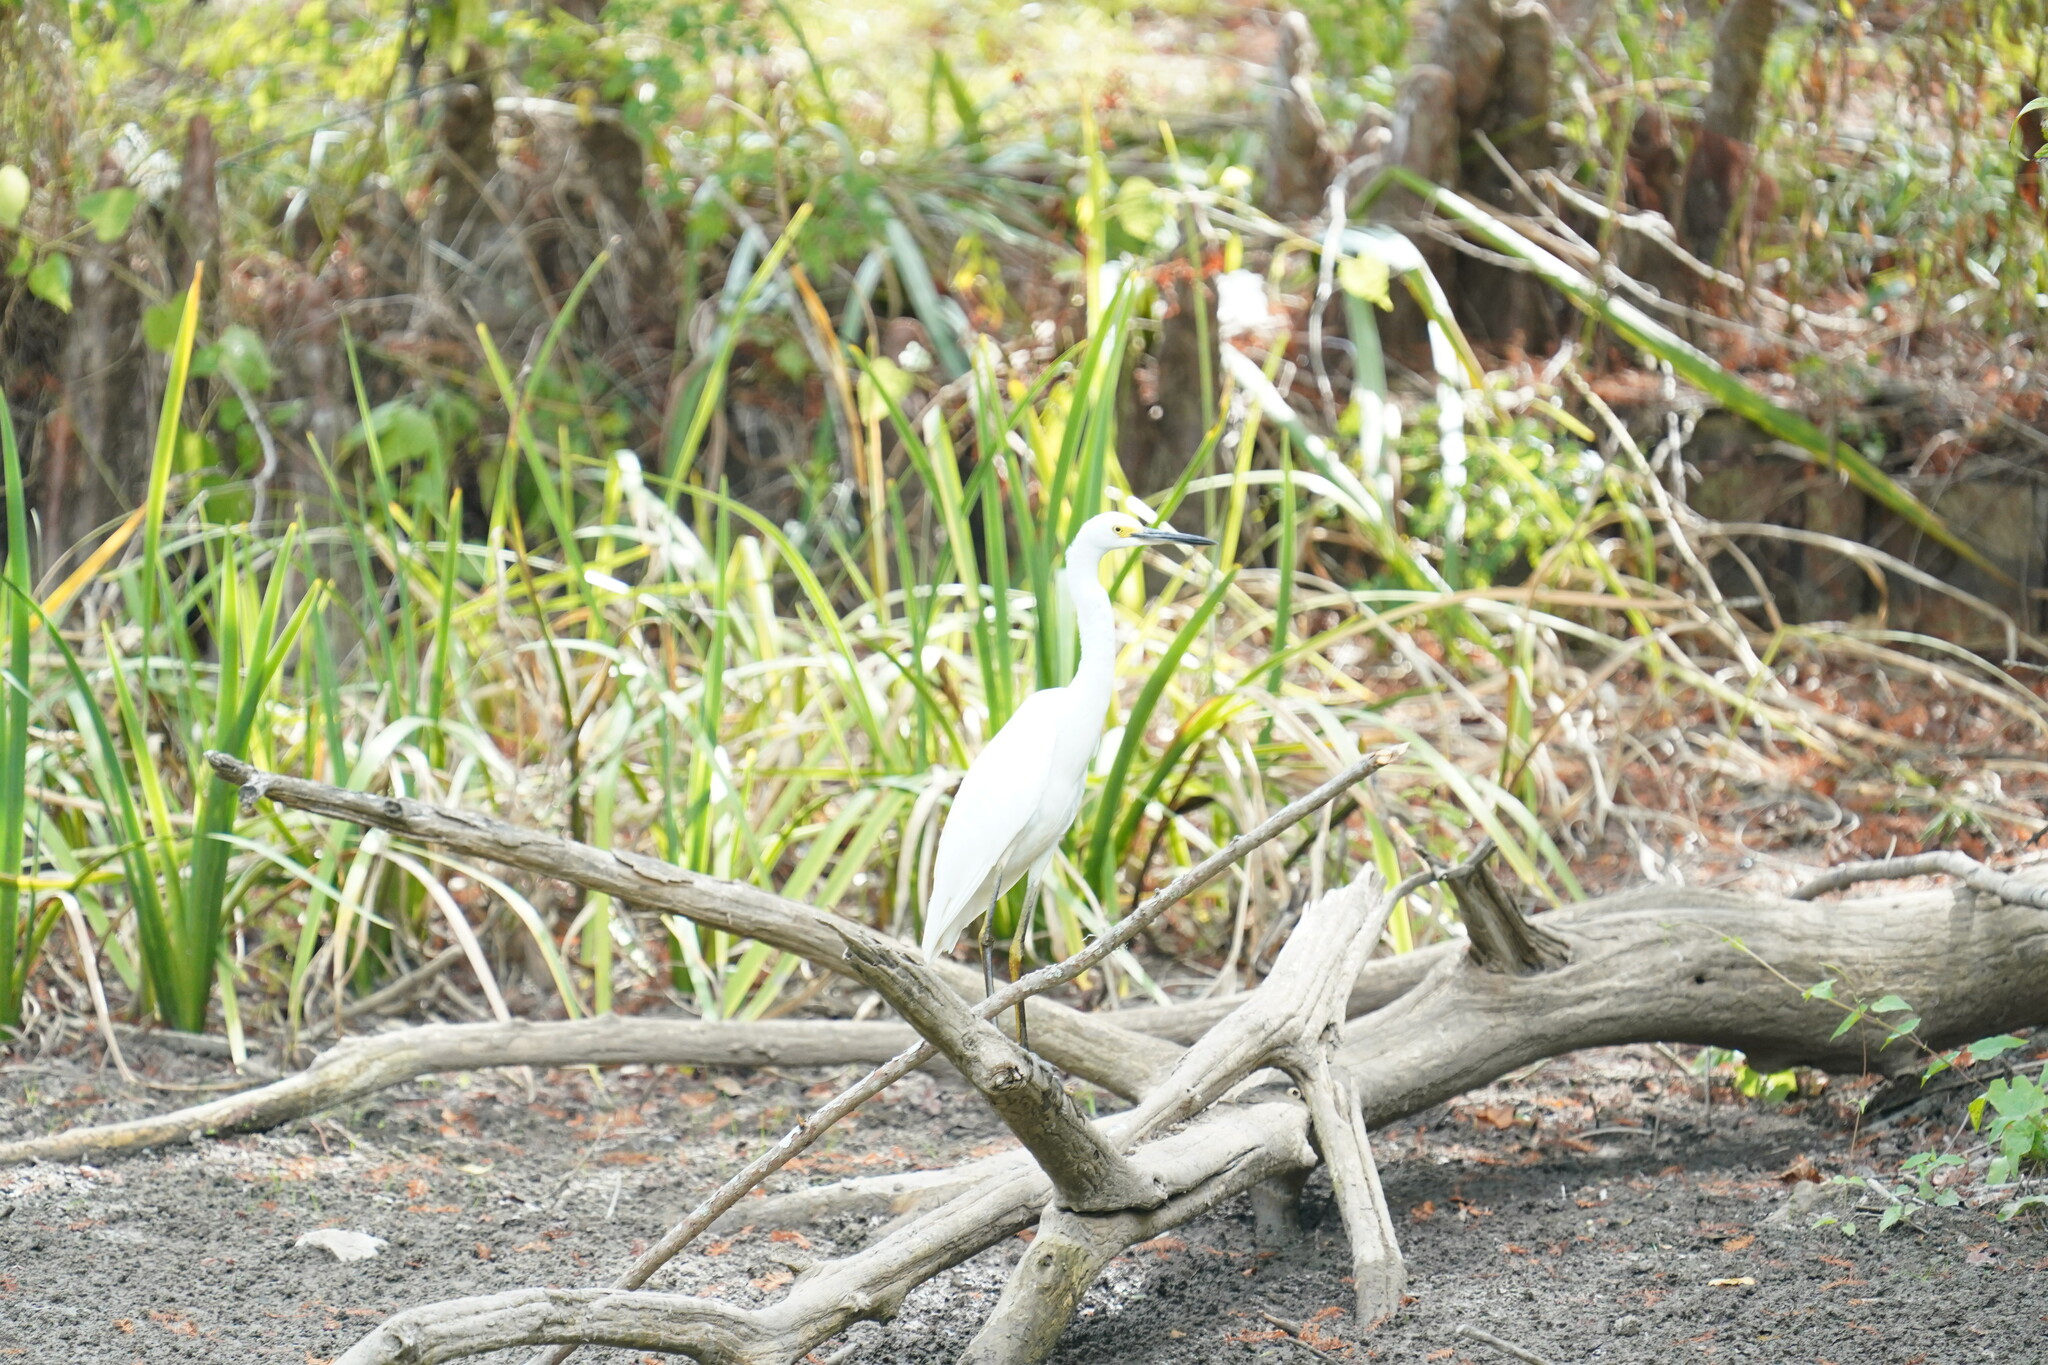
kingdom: Animalia
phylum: Chordata
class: Aves
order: Pelecaniformes
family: Ardeidae
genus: Egretta
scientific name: Egretta thula
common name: Snowy egret
